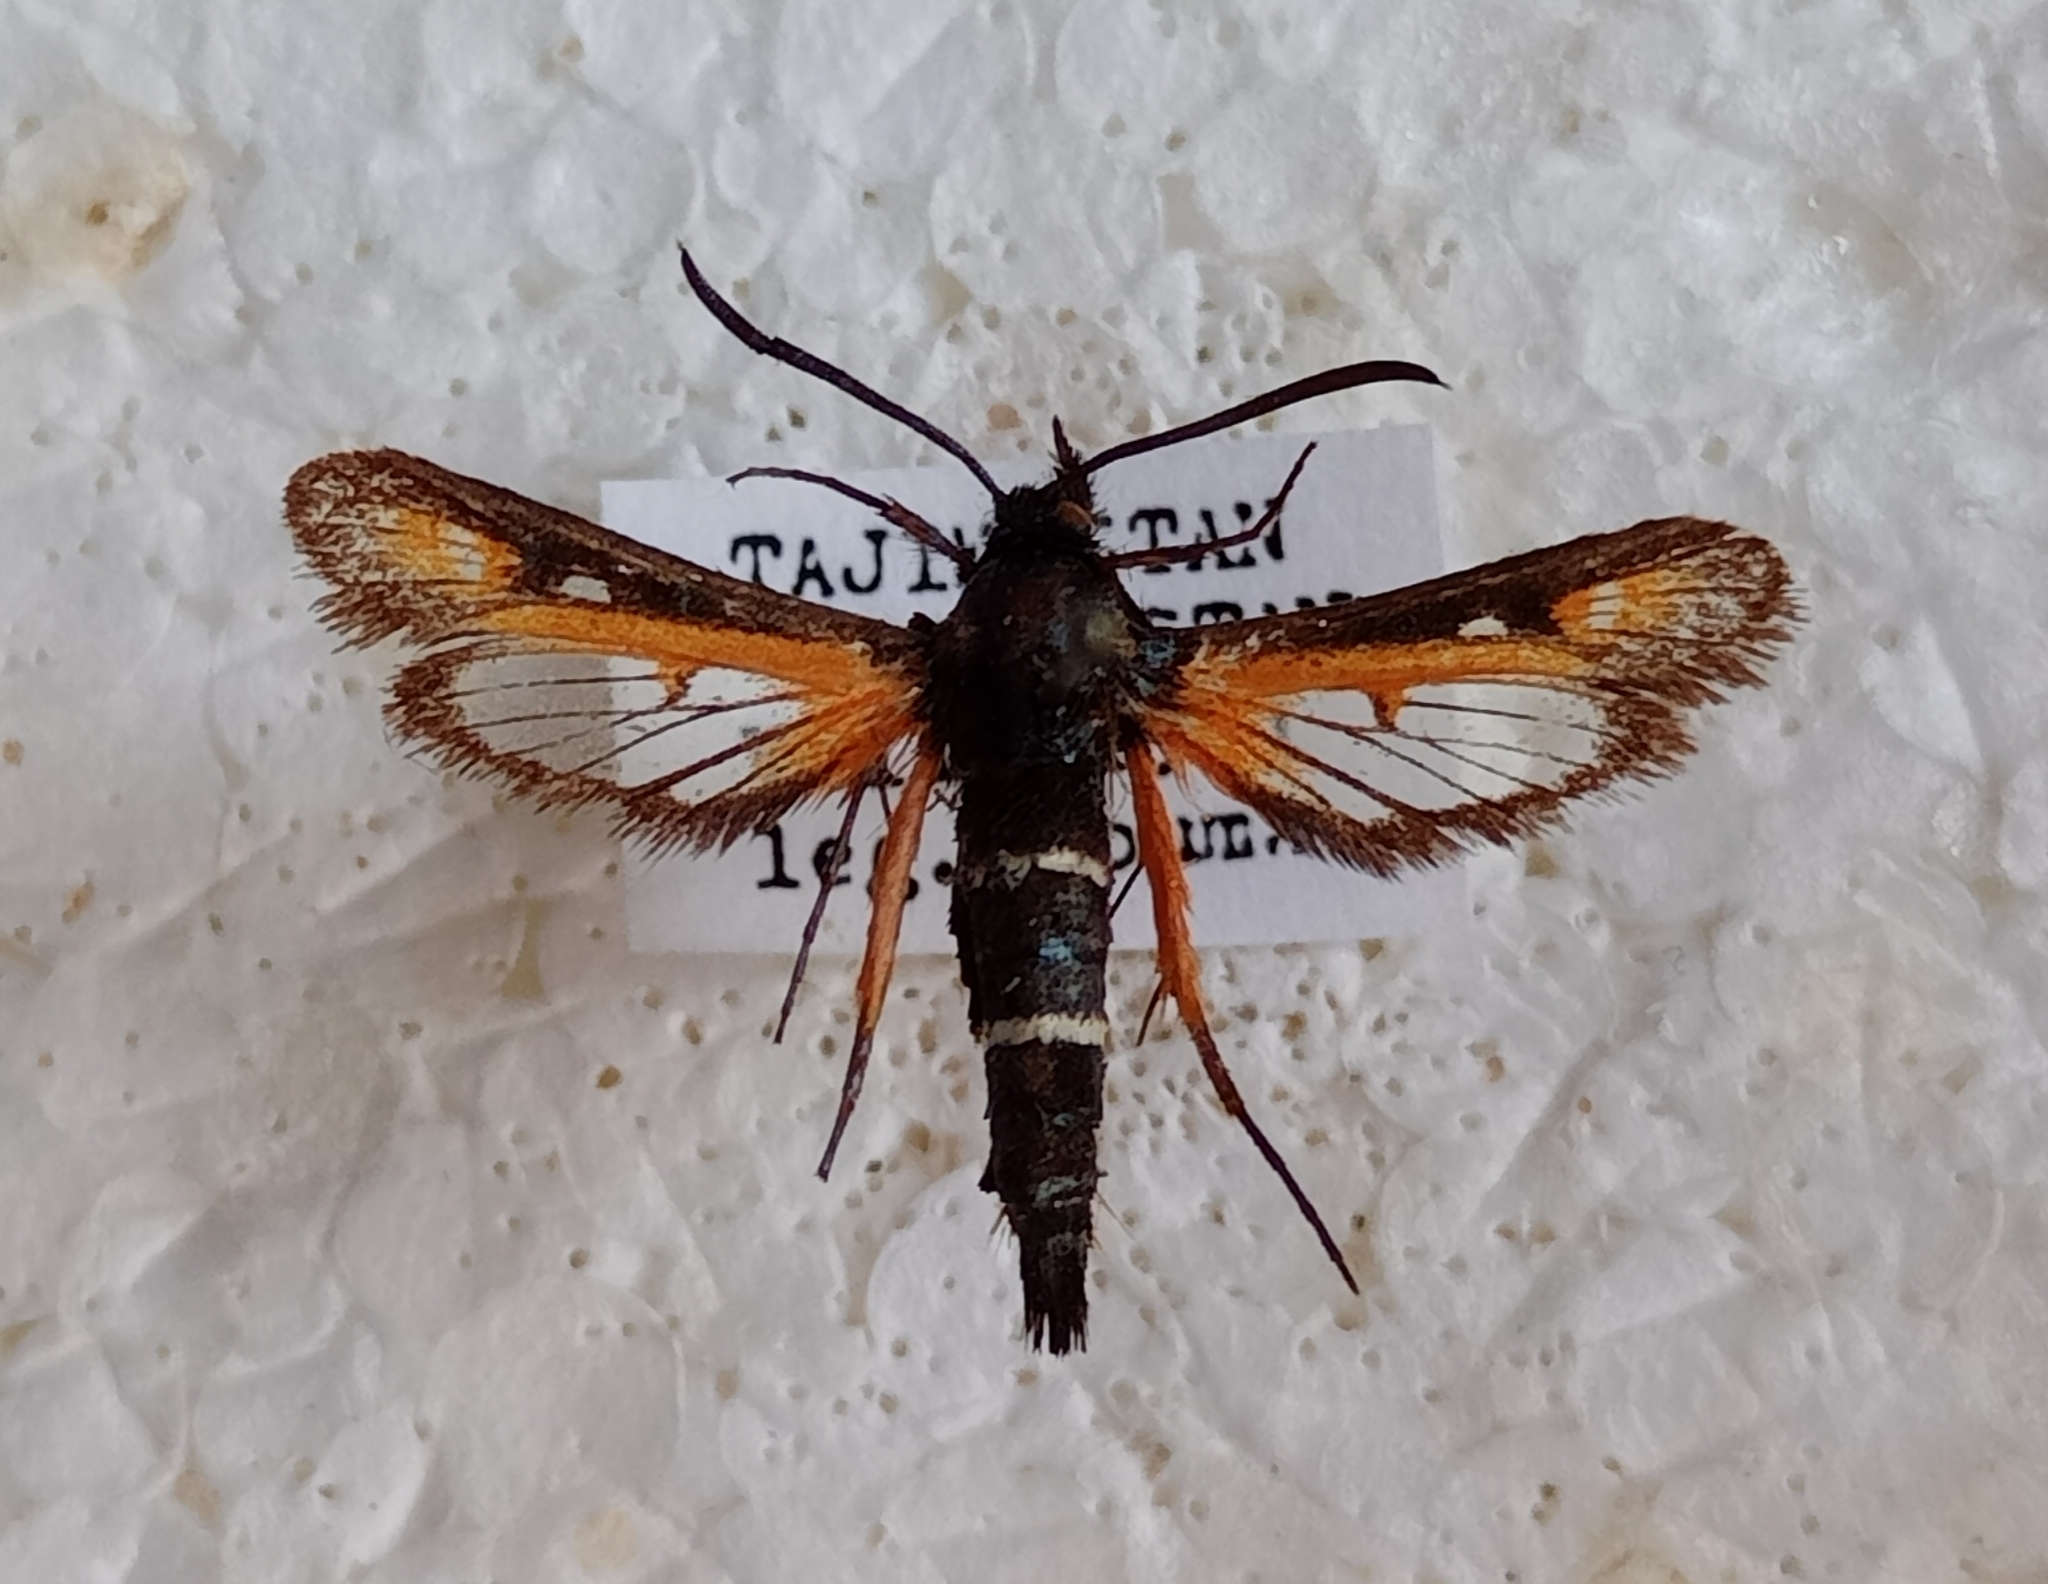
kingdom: Animalia
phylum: Arthropoda
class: Insecta
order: Lepidoptera
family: Sesiidae
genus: Bembecia
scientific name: Bembecia bohatschi
